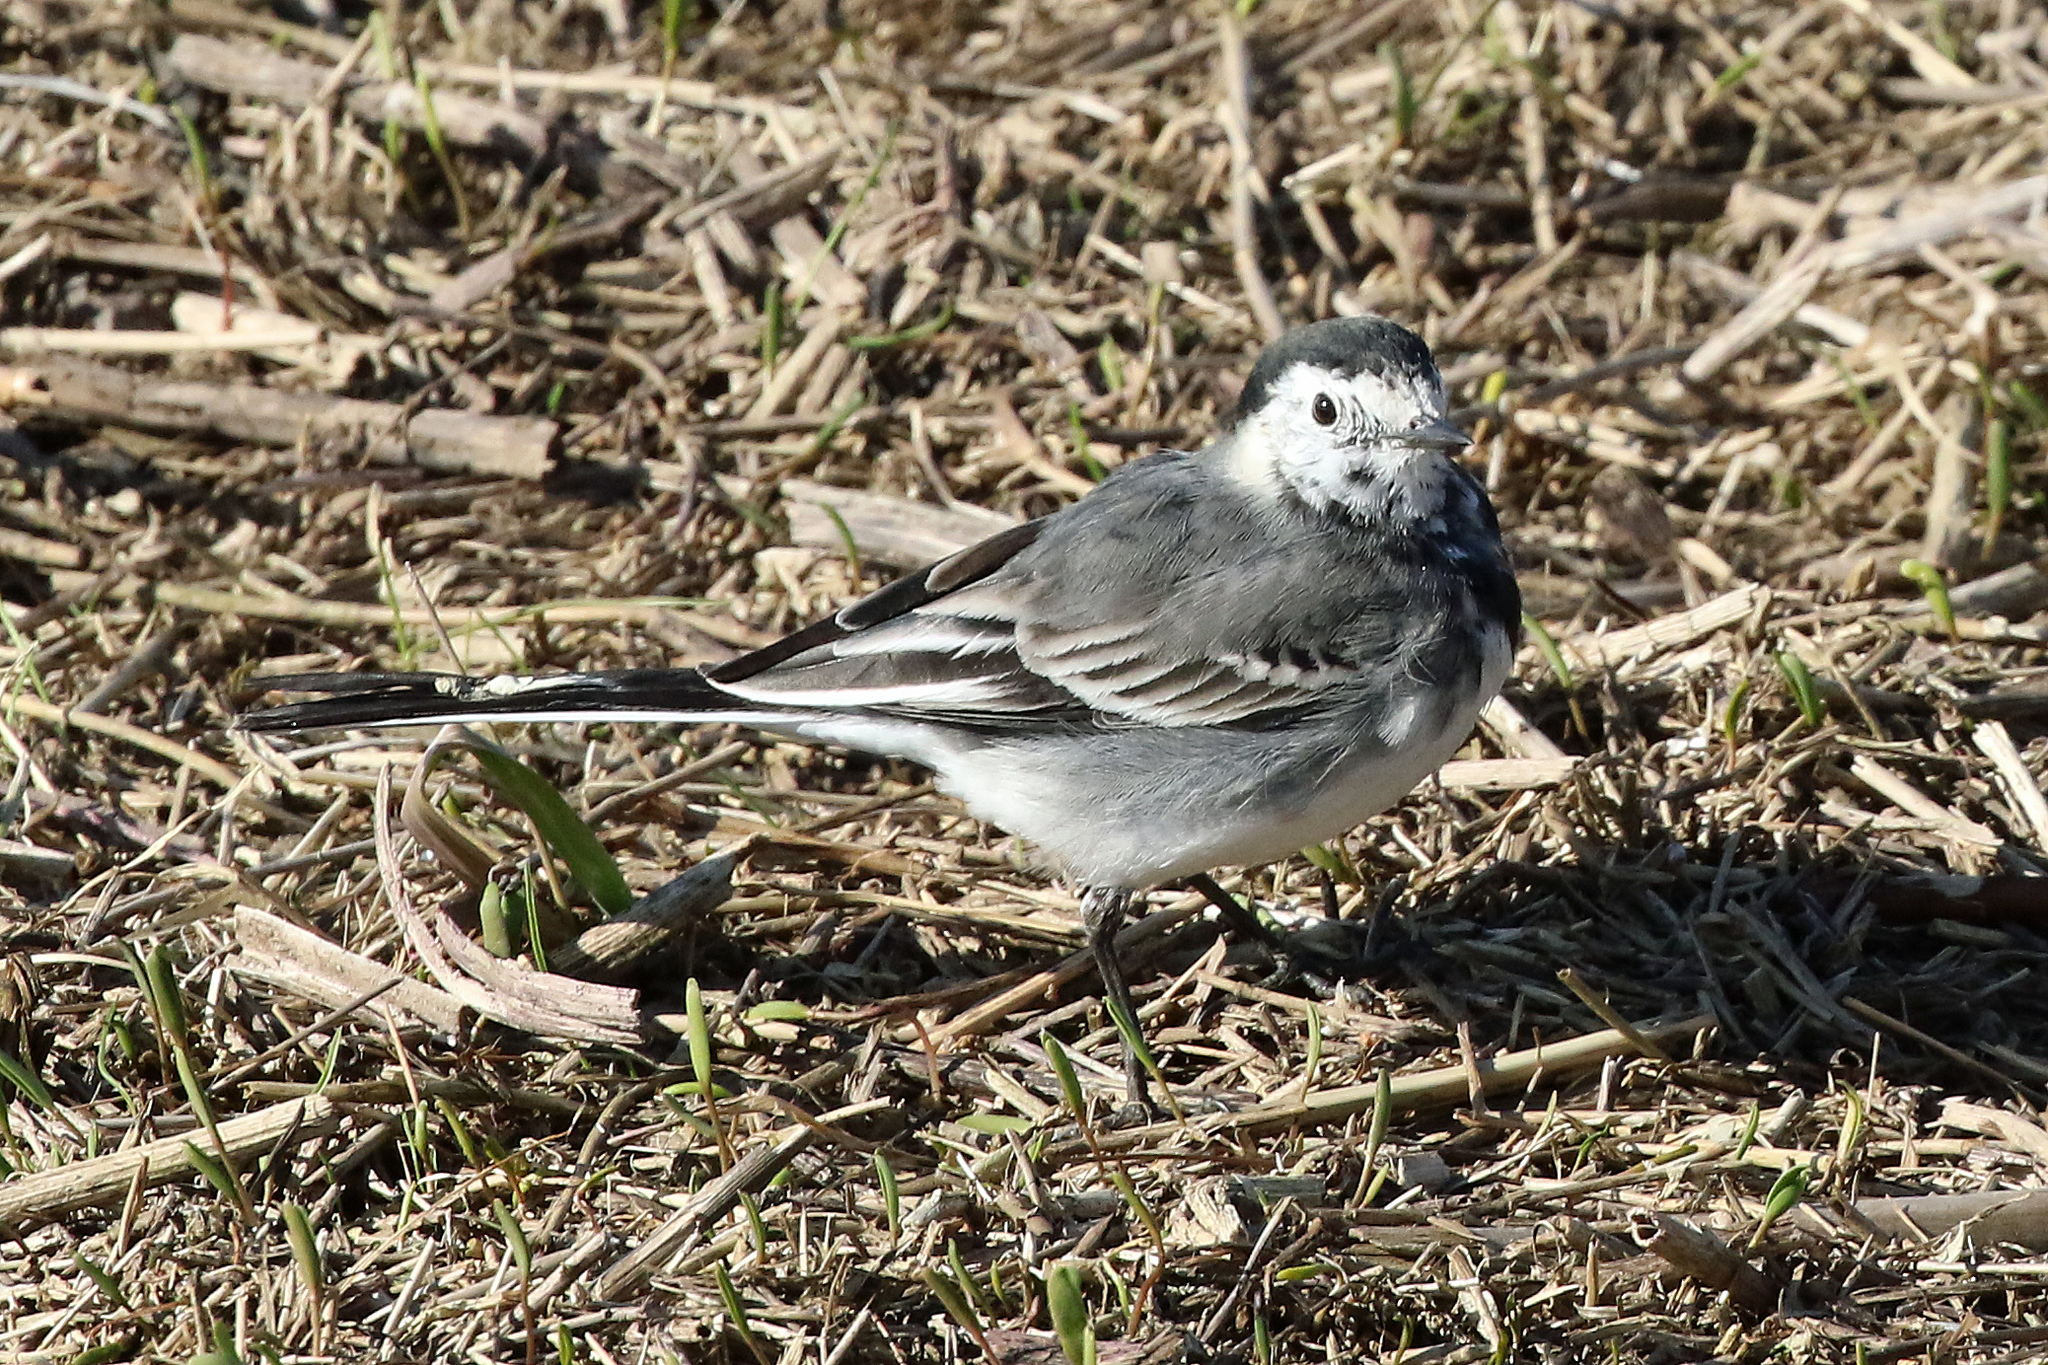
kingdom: Animalia
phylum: Chordata
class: Aves
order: Passeriformes
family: Motacillidae
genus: Motacilla
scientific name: Motacilla alba
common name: White wagtail
